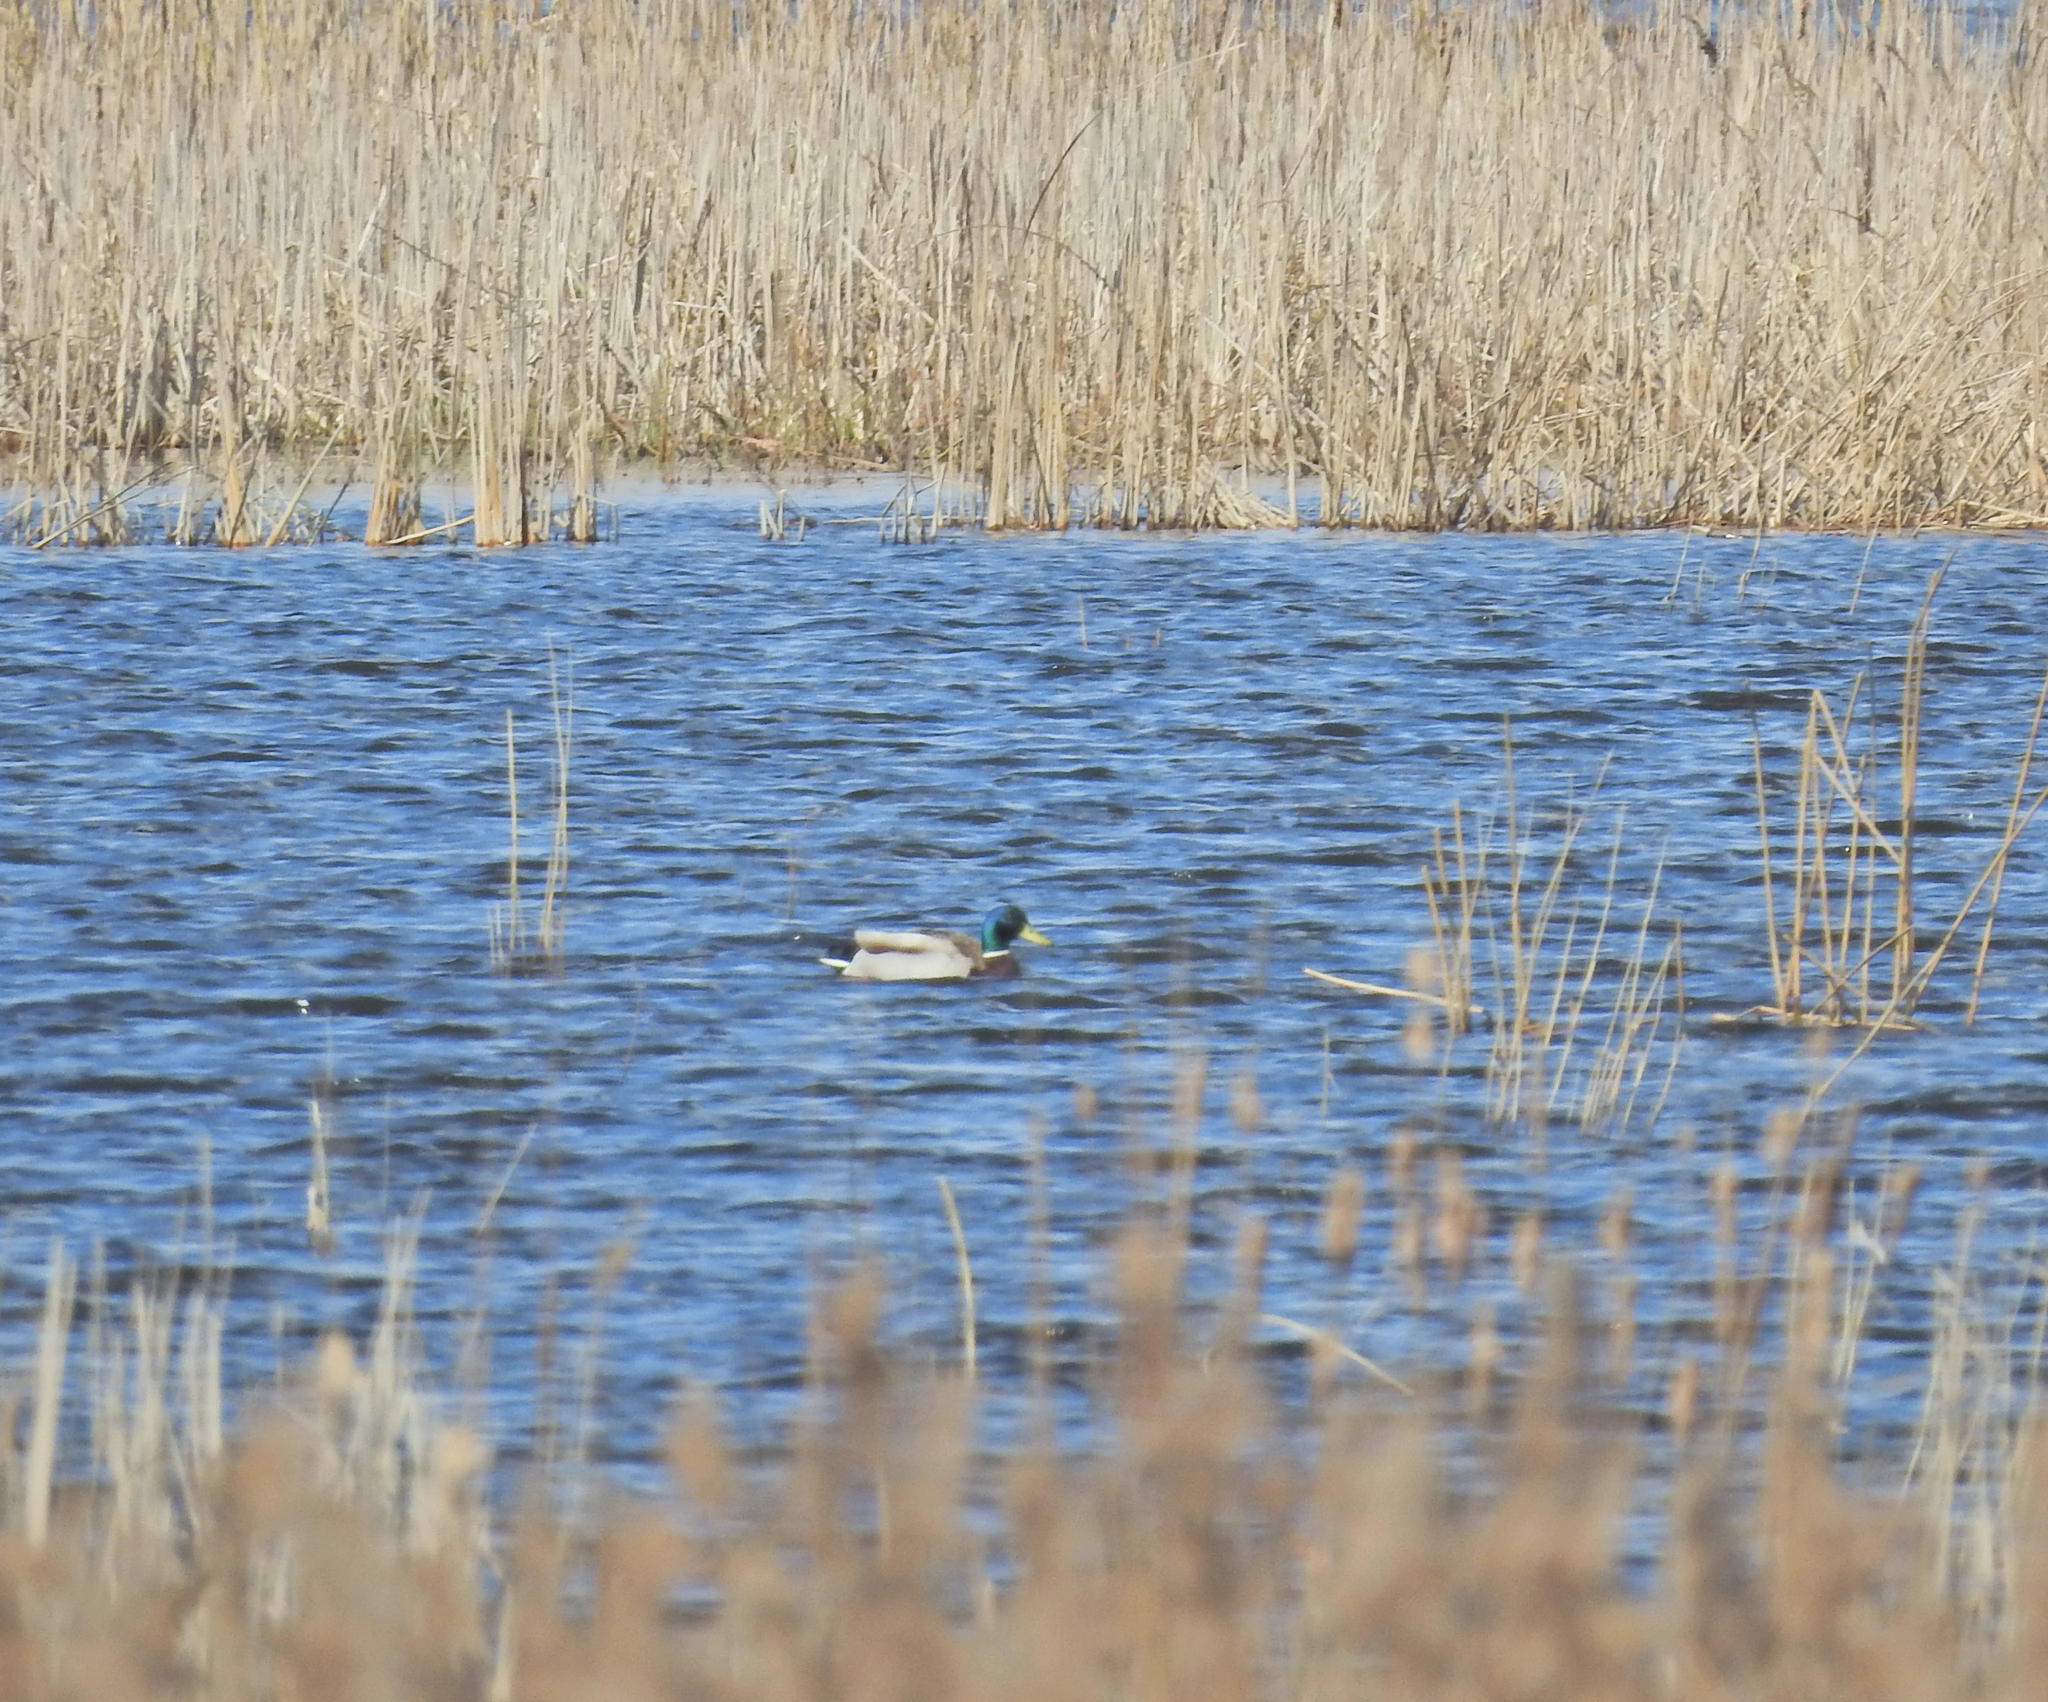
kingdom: Animalia
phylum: Chordata
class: Aves
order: Anseriformes
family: Anatidae
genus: Anas
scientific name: Anas platyrhynchos
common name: Mallard
